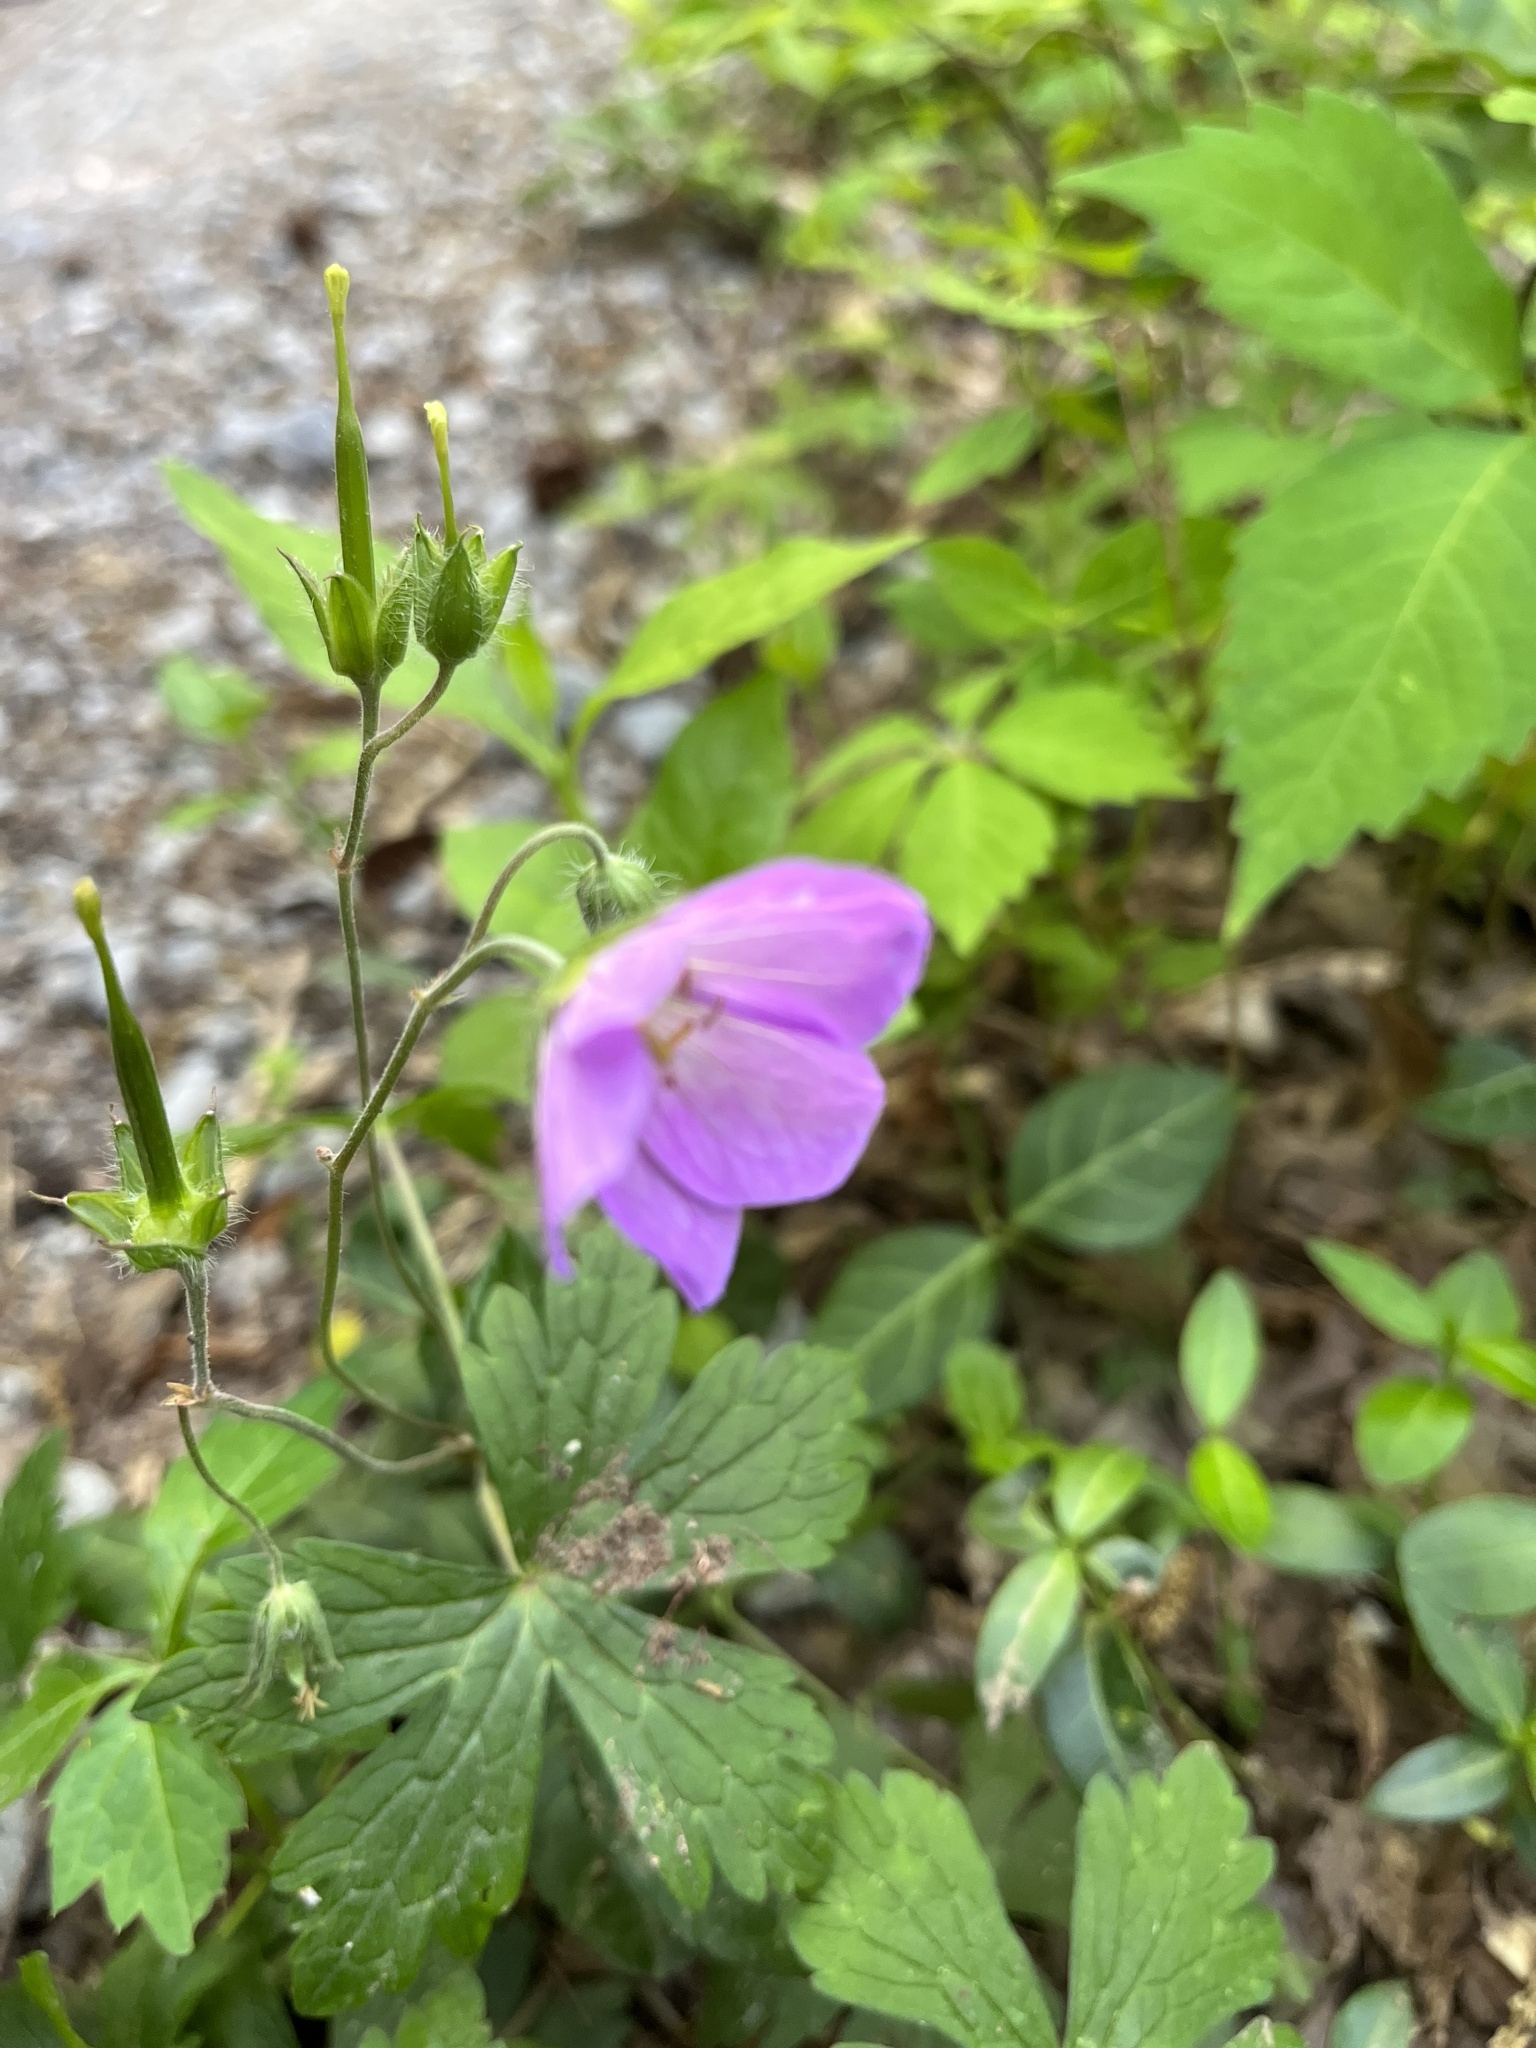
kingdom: Plantae
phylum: Tracheophyta
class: Magnoliopsida
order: Geraniales
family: Geraniaceae
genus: Geranium
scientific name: Geranium maculatum
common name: Spotted geranium
